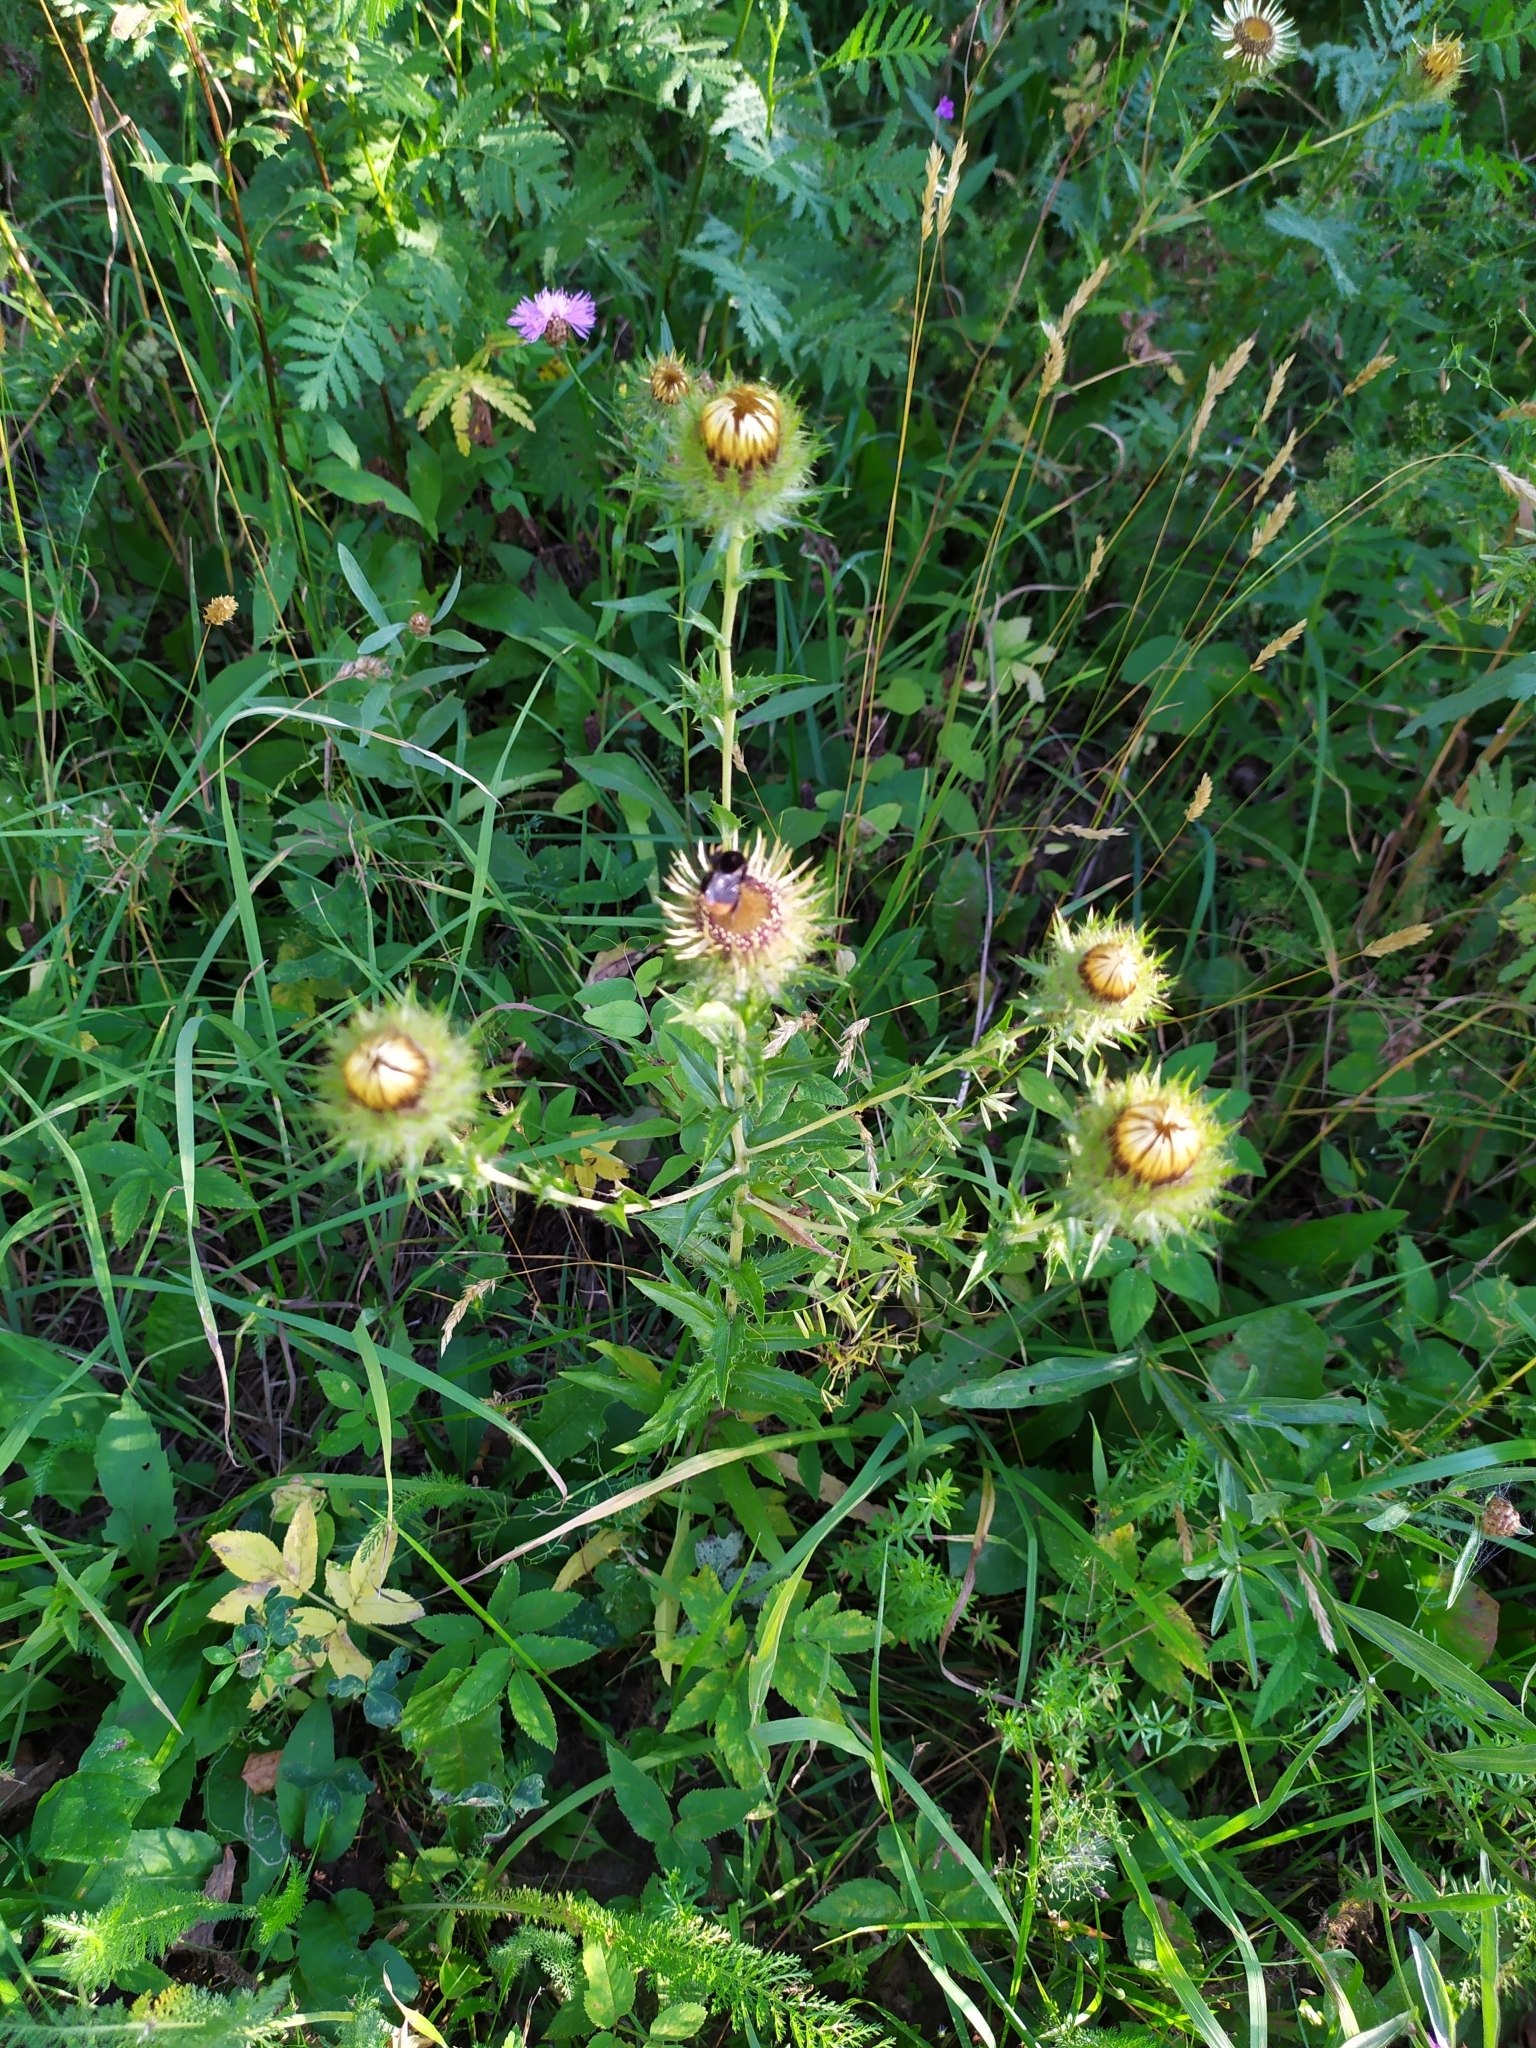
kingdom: Plantae
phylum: Tracheophyta
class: Magnoliopsida
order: Asterales
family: Asteraceae
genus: Carlina
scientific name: Carlina biebersteinii
